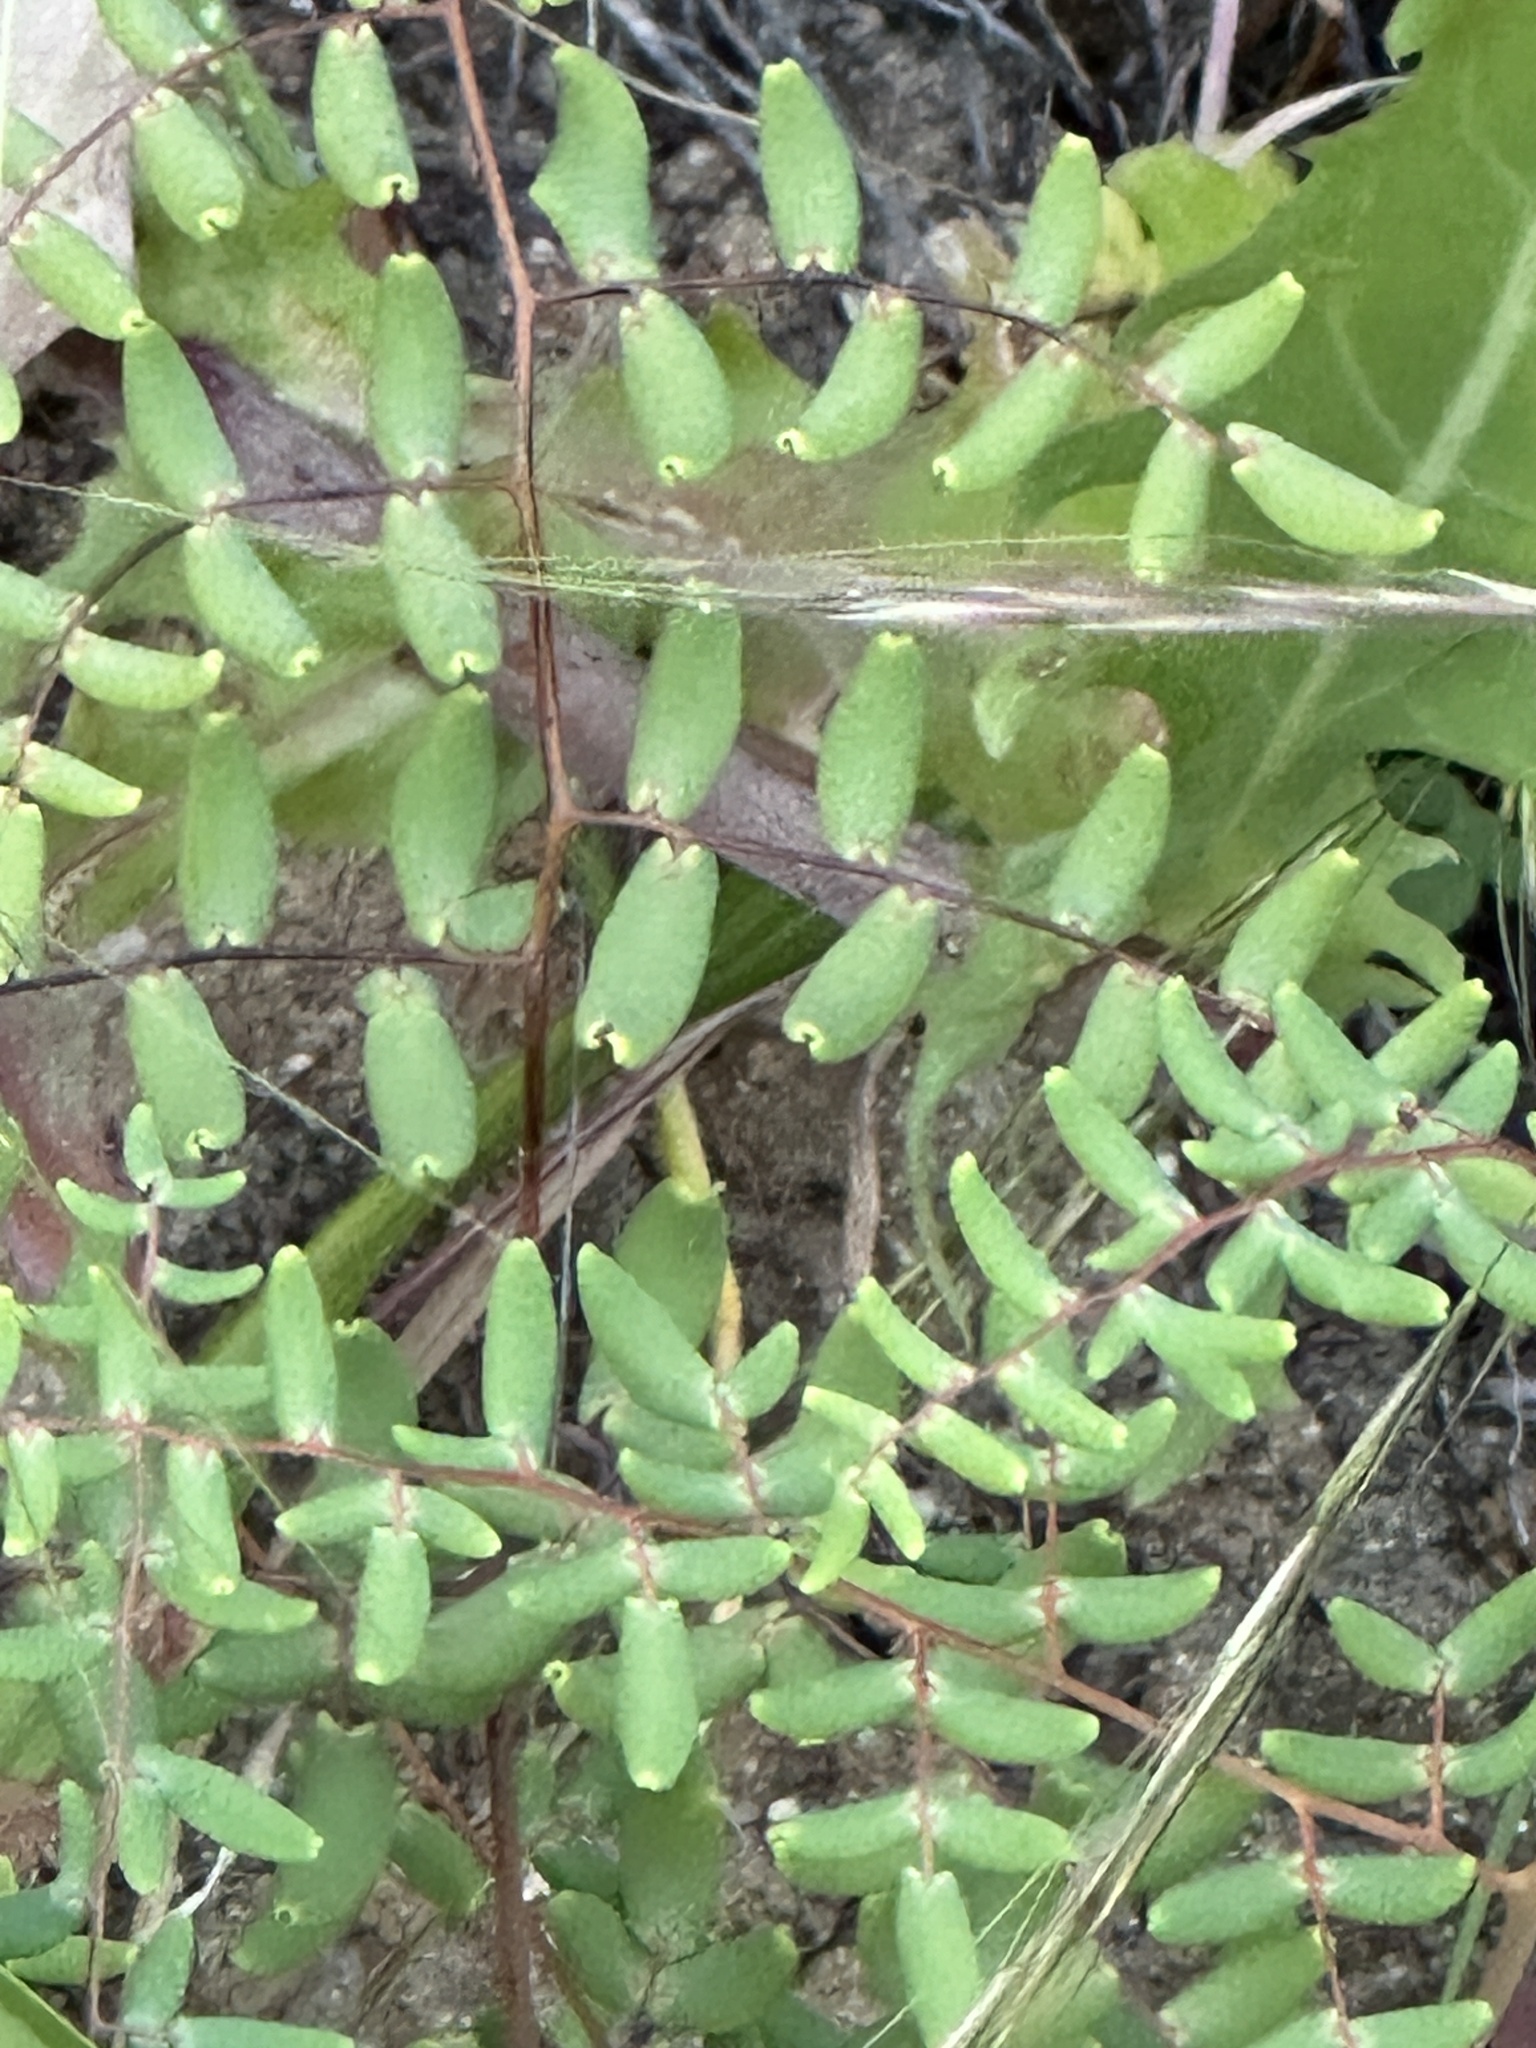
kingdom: Plantae
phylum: Tracheophyta
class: Polypodiopsida
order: Polypodiales
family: Pteridaceae
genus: Pellaea
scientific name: Pellaea andromedifolia
